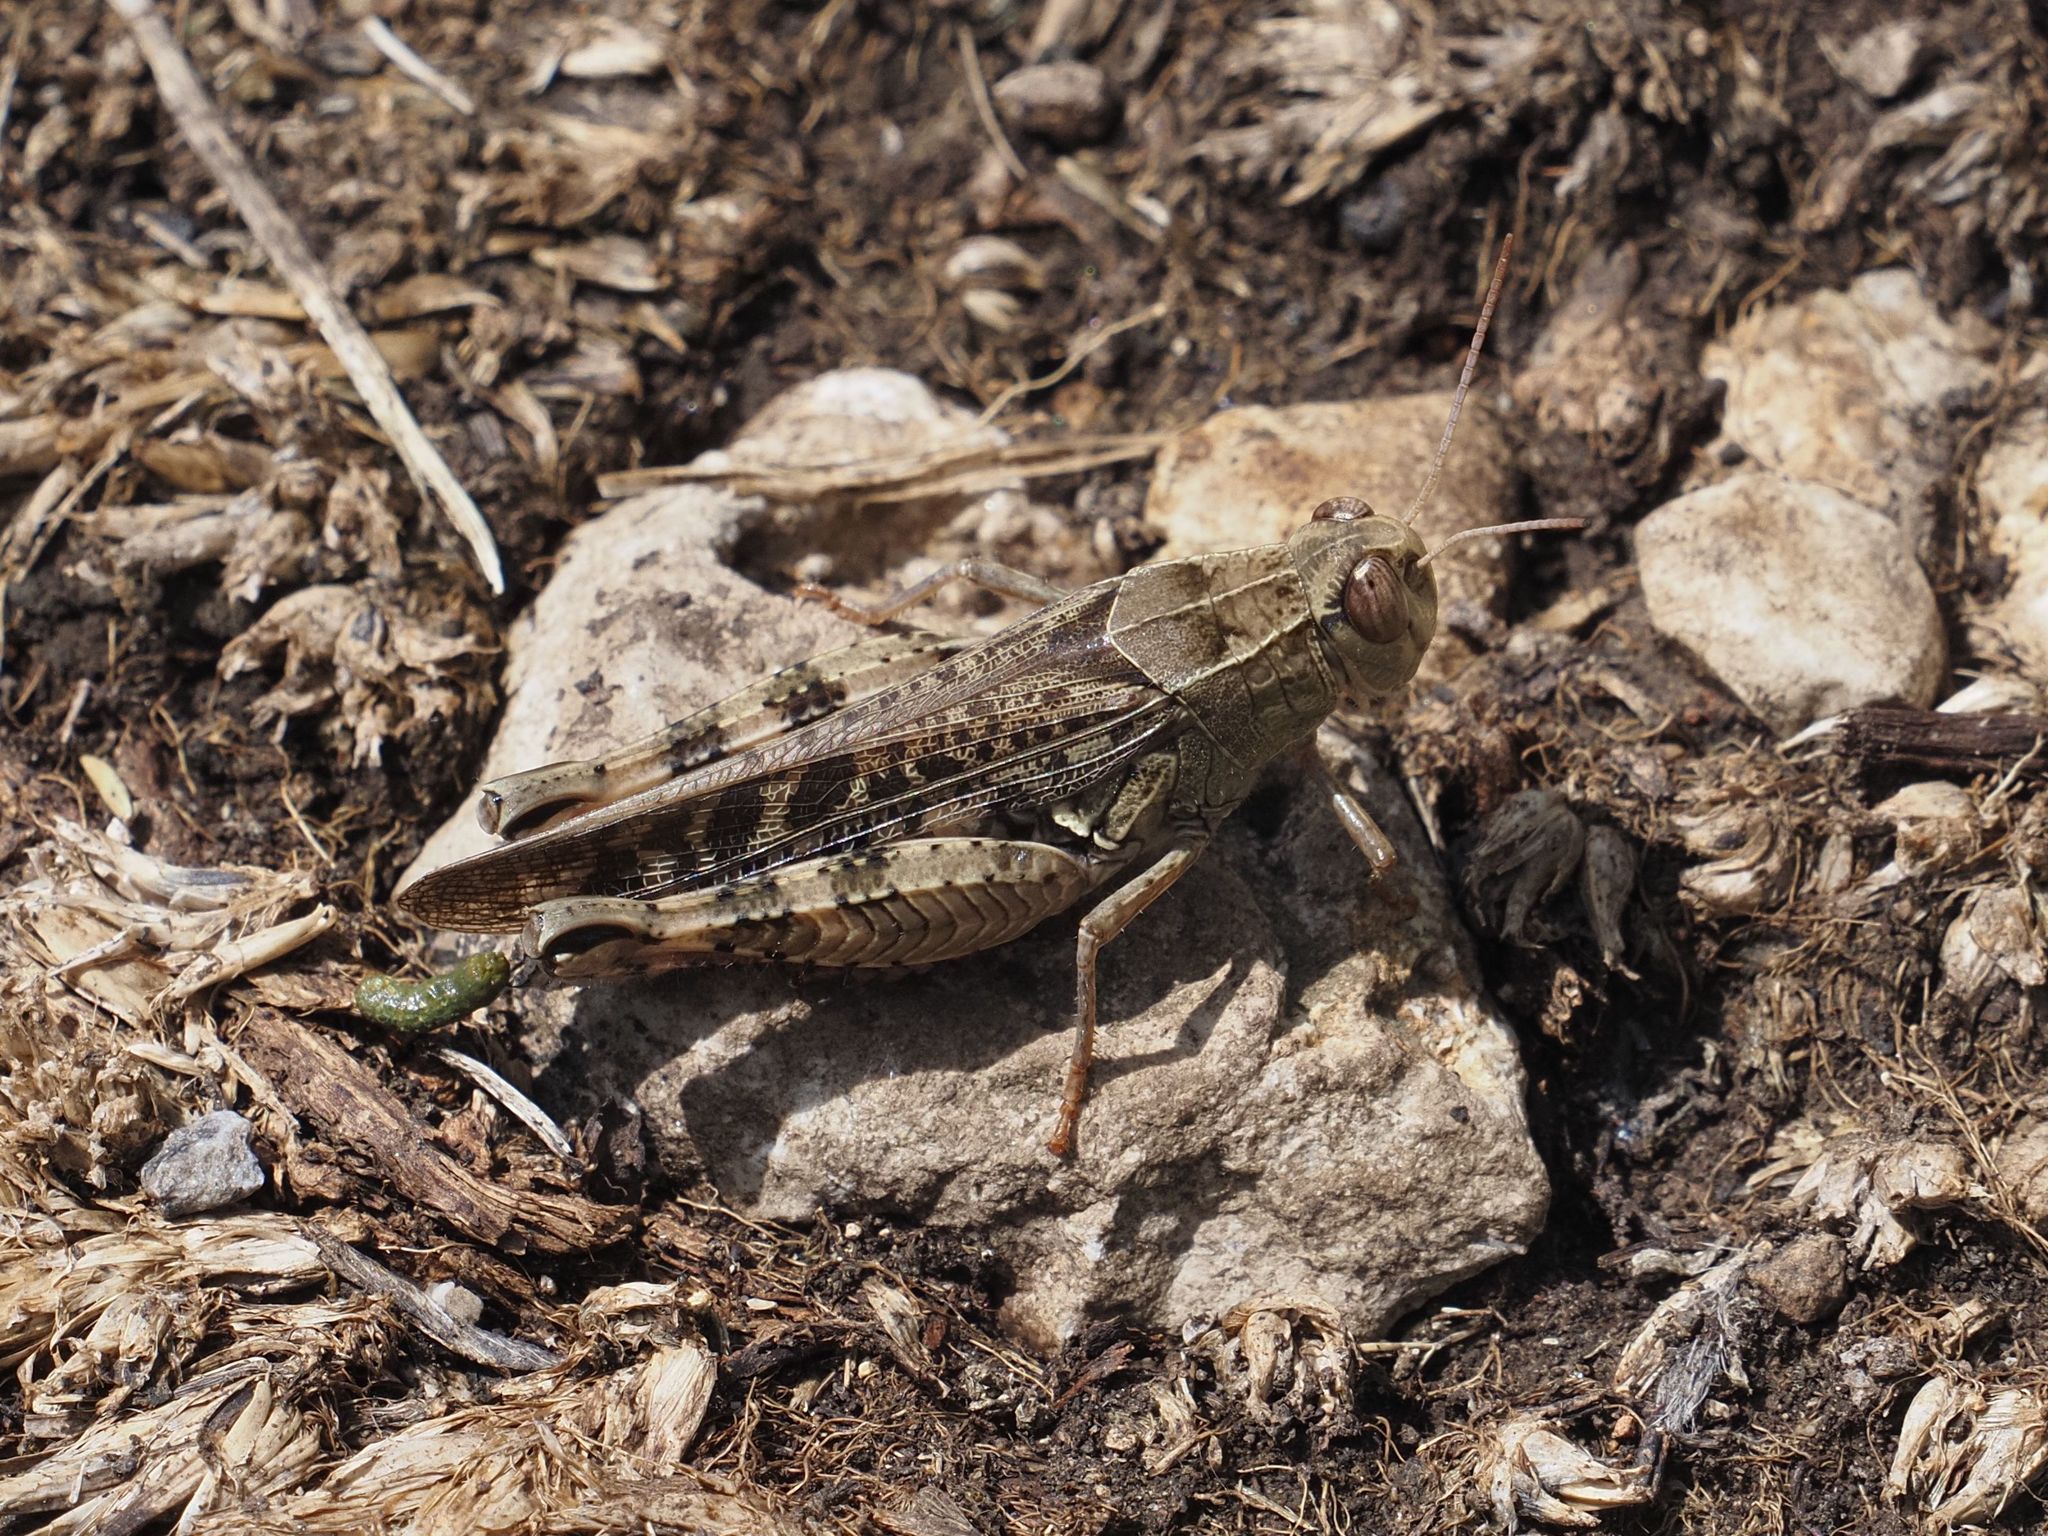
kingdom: Animalia
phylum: Arthropoda
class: Insecta
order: Orthoptera
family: Acrididae
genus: Calliptamus
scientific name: Calliptamus italicus
